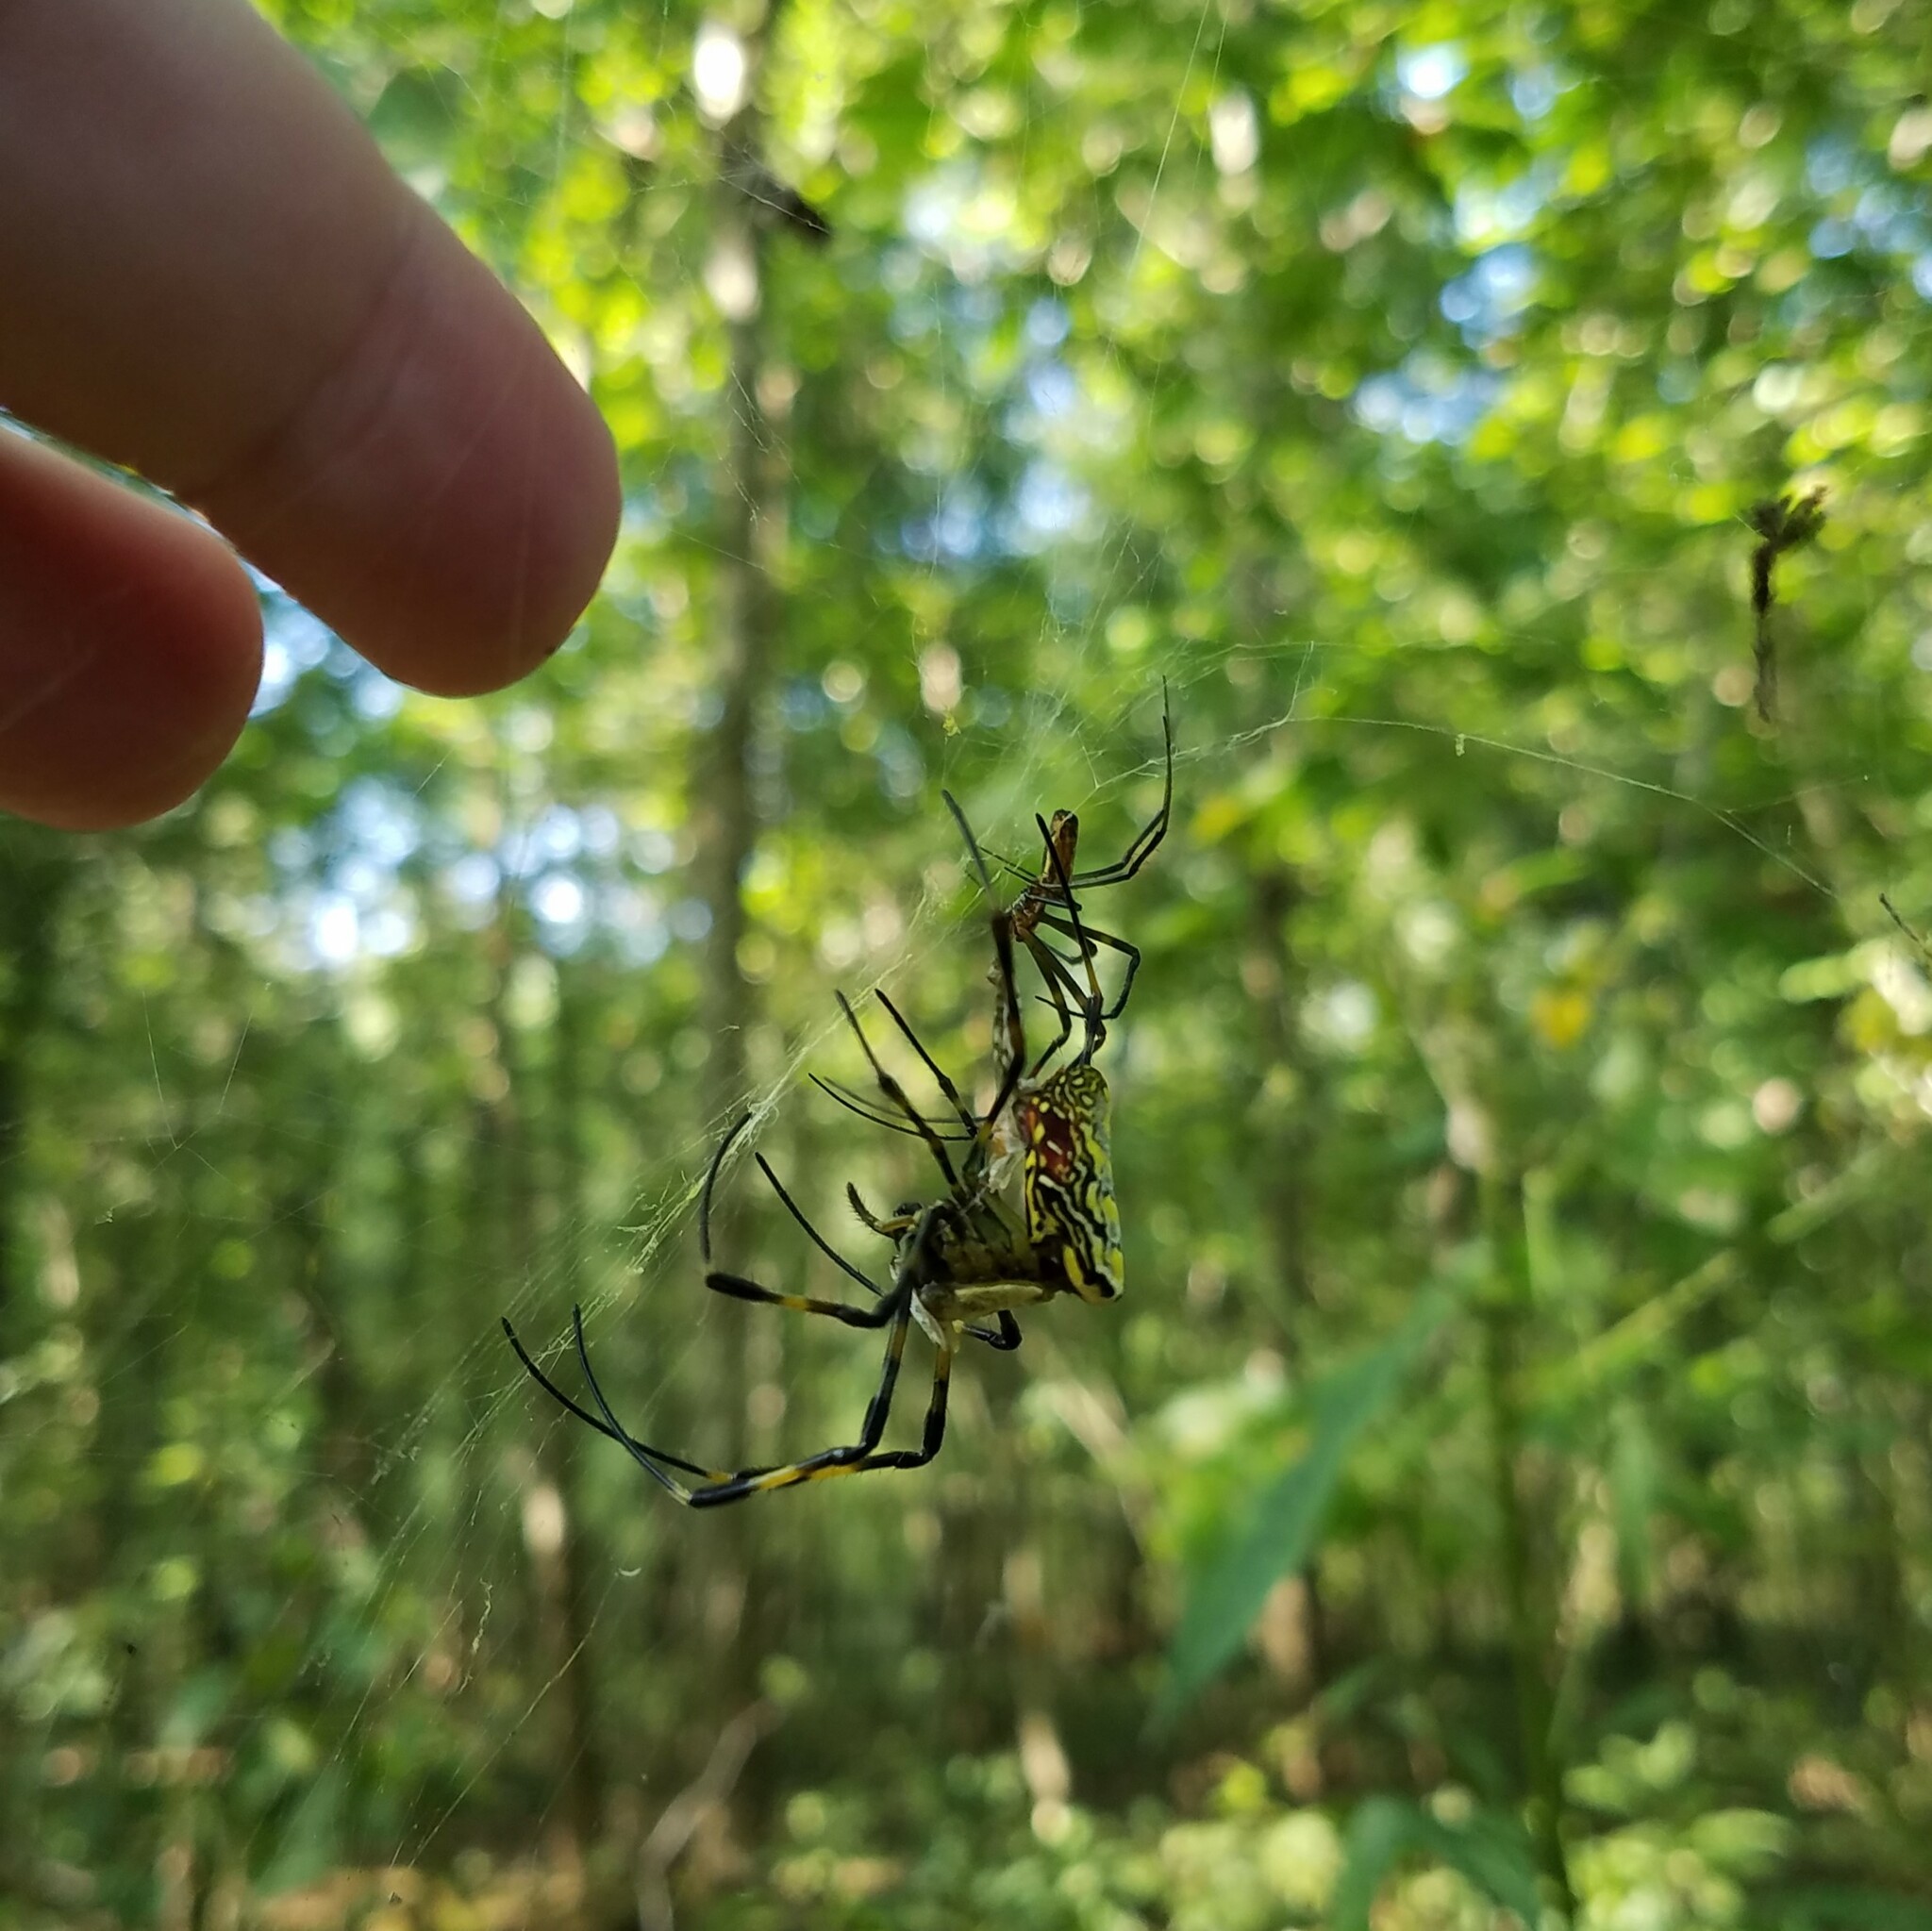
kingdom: Animalia
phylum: Arthropoda
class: Arachnida
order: Araneae
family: Araneidae
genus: Trichonephila
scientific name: Trichonephila clavata
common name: Jorō spider
